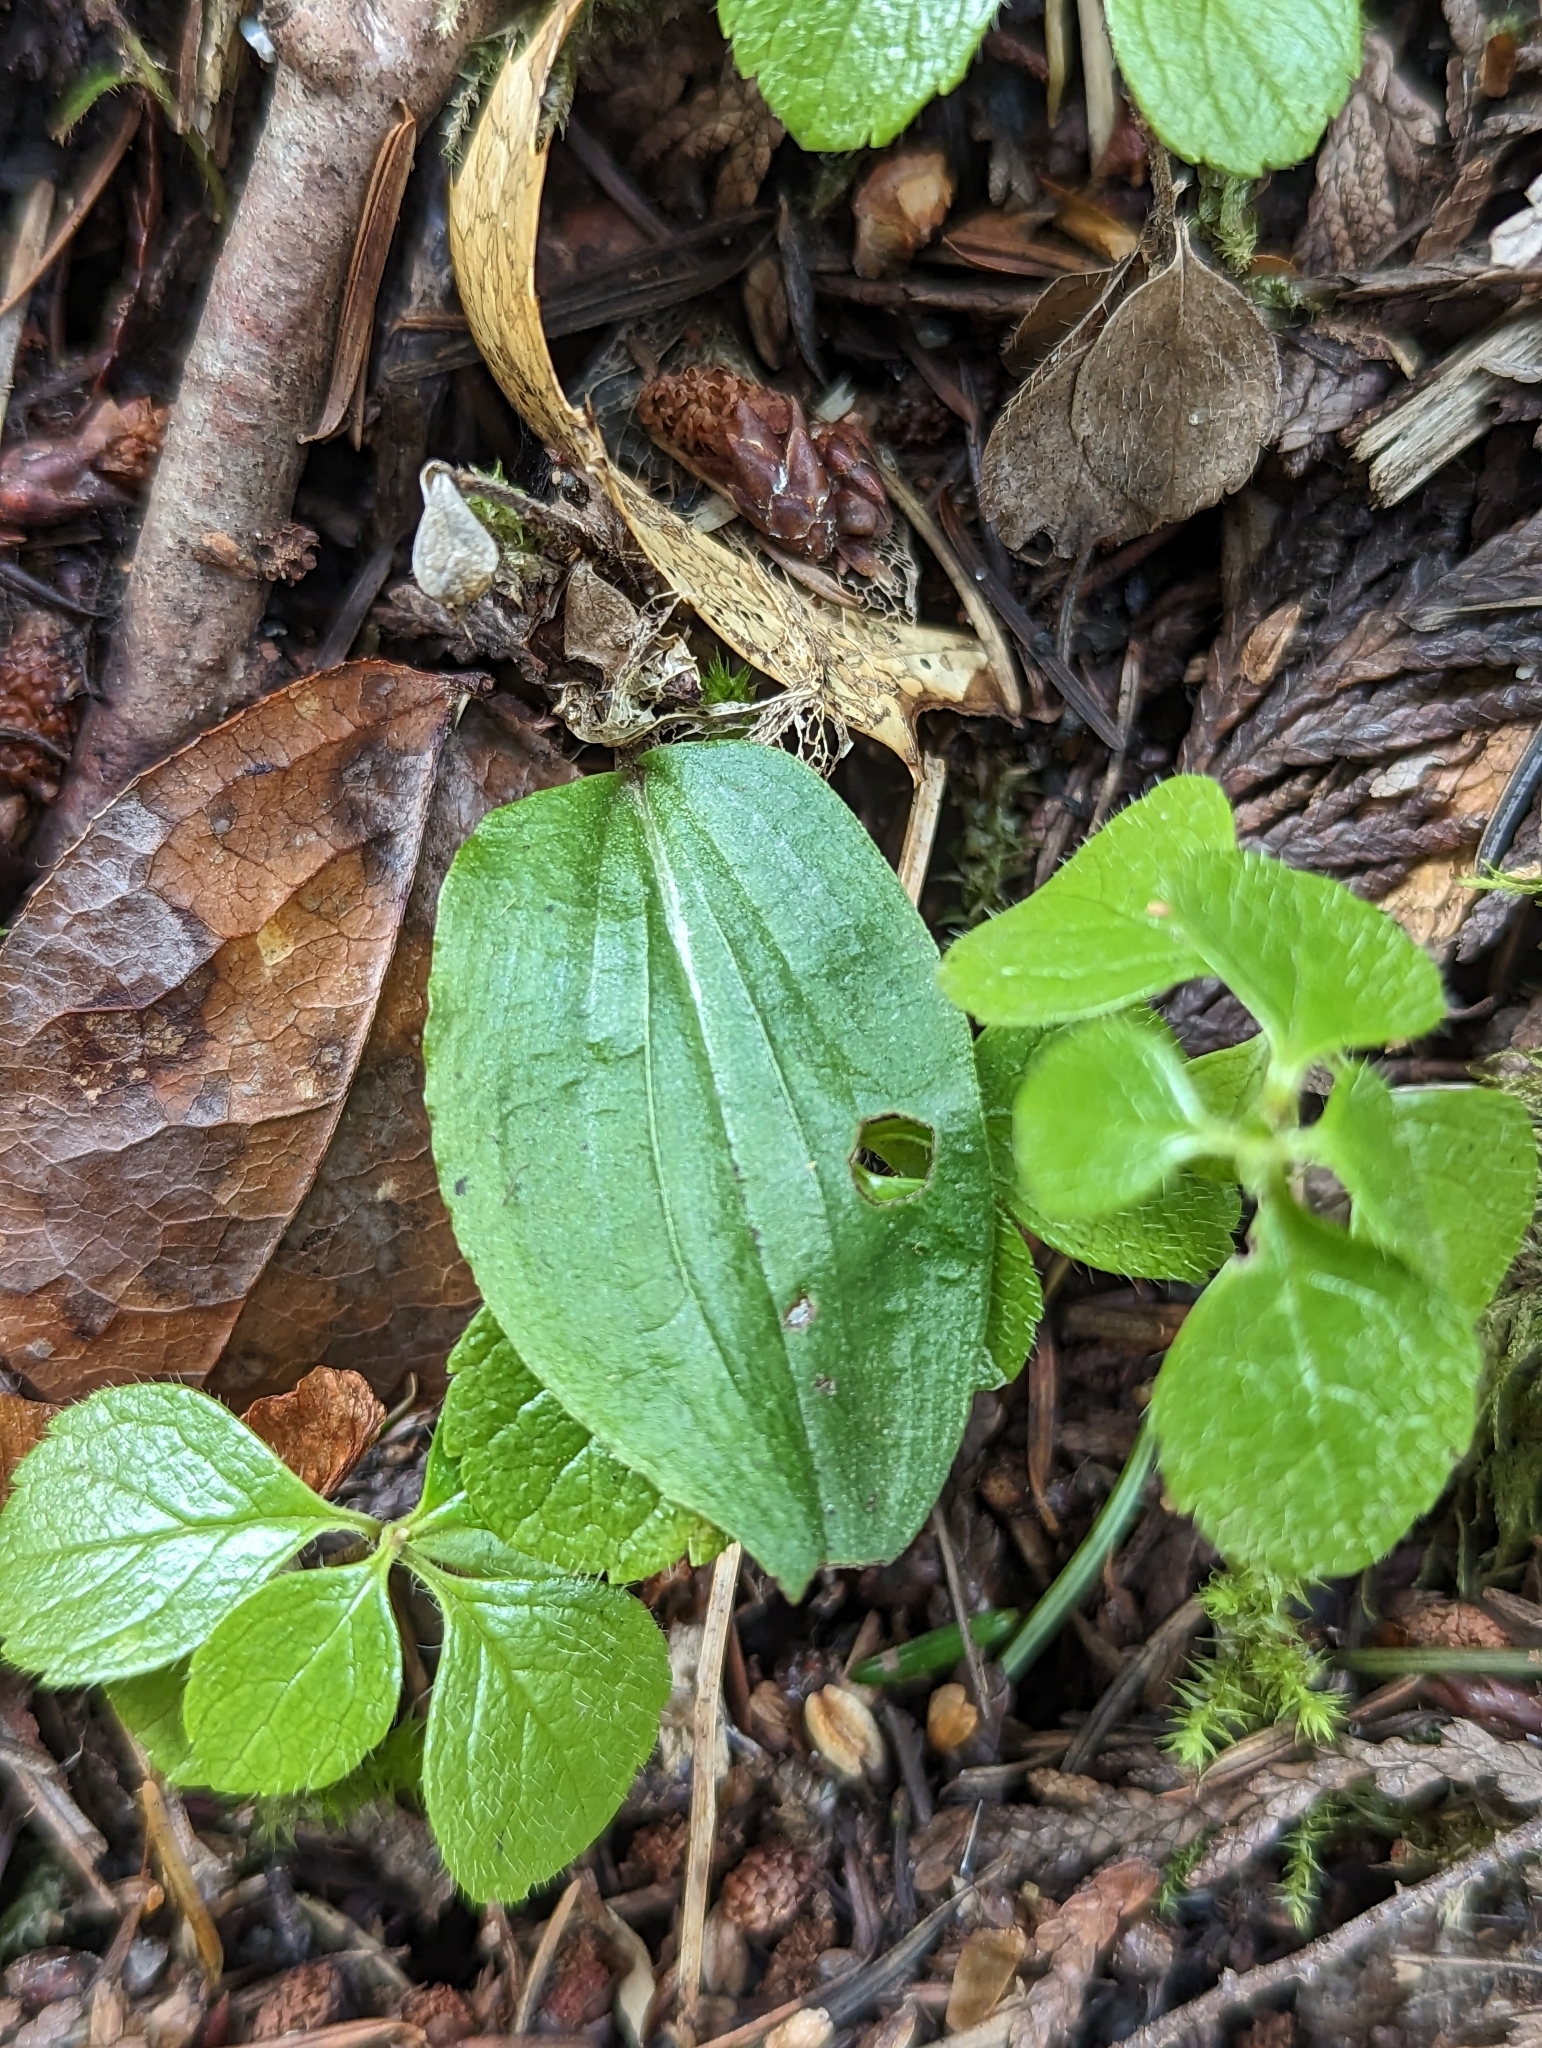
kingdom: Plantae
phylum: Tracheophyta
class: Liliopsida
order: Asparagales
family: Orchidaceae
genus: Calypso
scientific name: Calypso bulbosa
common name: Calypso
